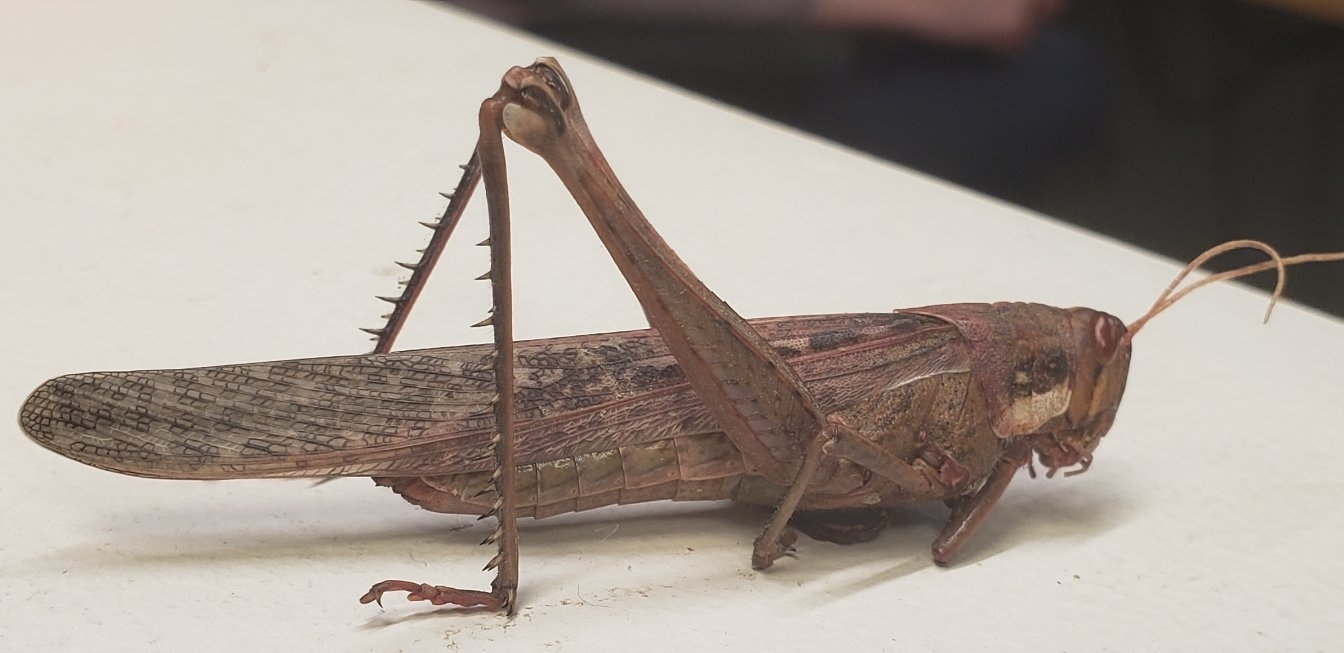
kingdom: Animalia
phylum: Arthropoda
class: Insecta
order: Orthoptera
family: Acrididae
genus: Schistocerca
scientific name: Schistocerca nitens
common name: Vagrant grasshopper
